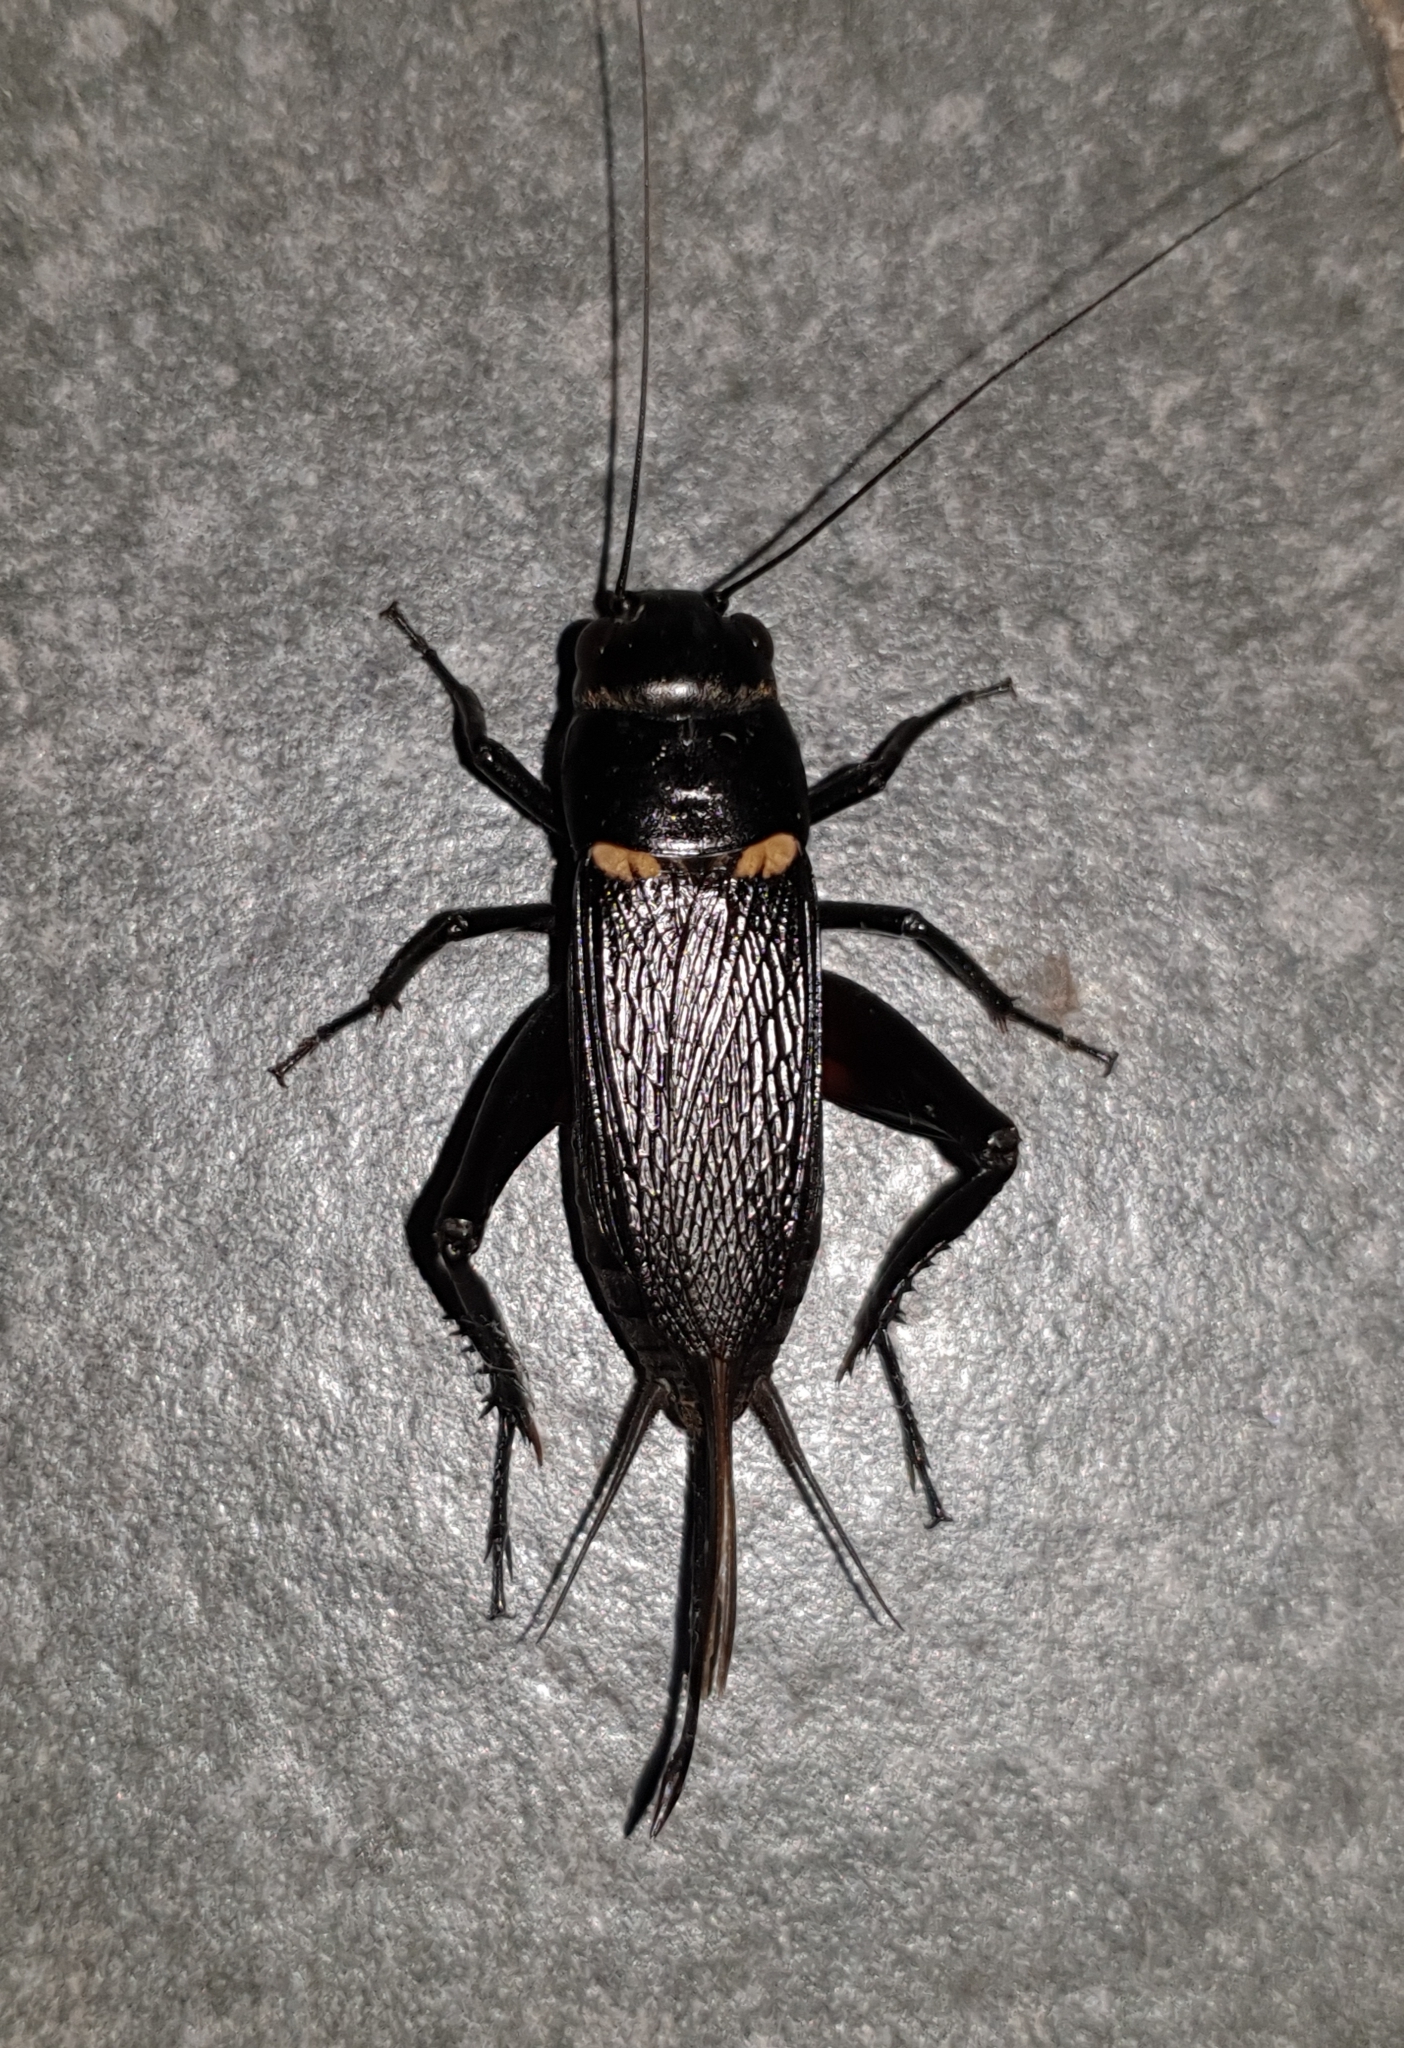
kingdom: Animalia
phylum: Arthropoda
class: Insecta
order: Orthoptera
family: Gryllidae
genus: Gryllus
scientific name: Gryllus bimaculatus
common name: Two-spotted cricket
